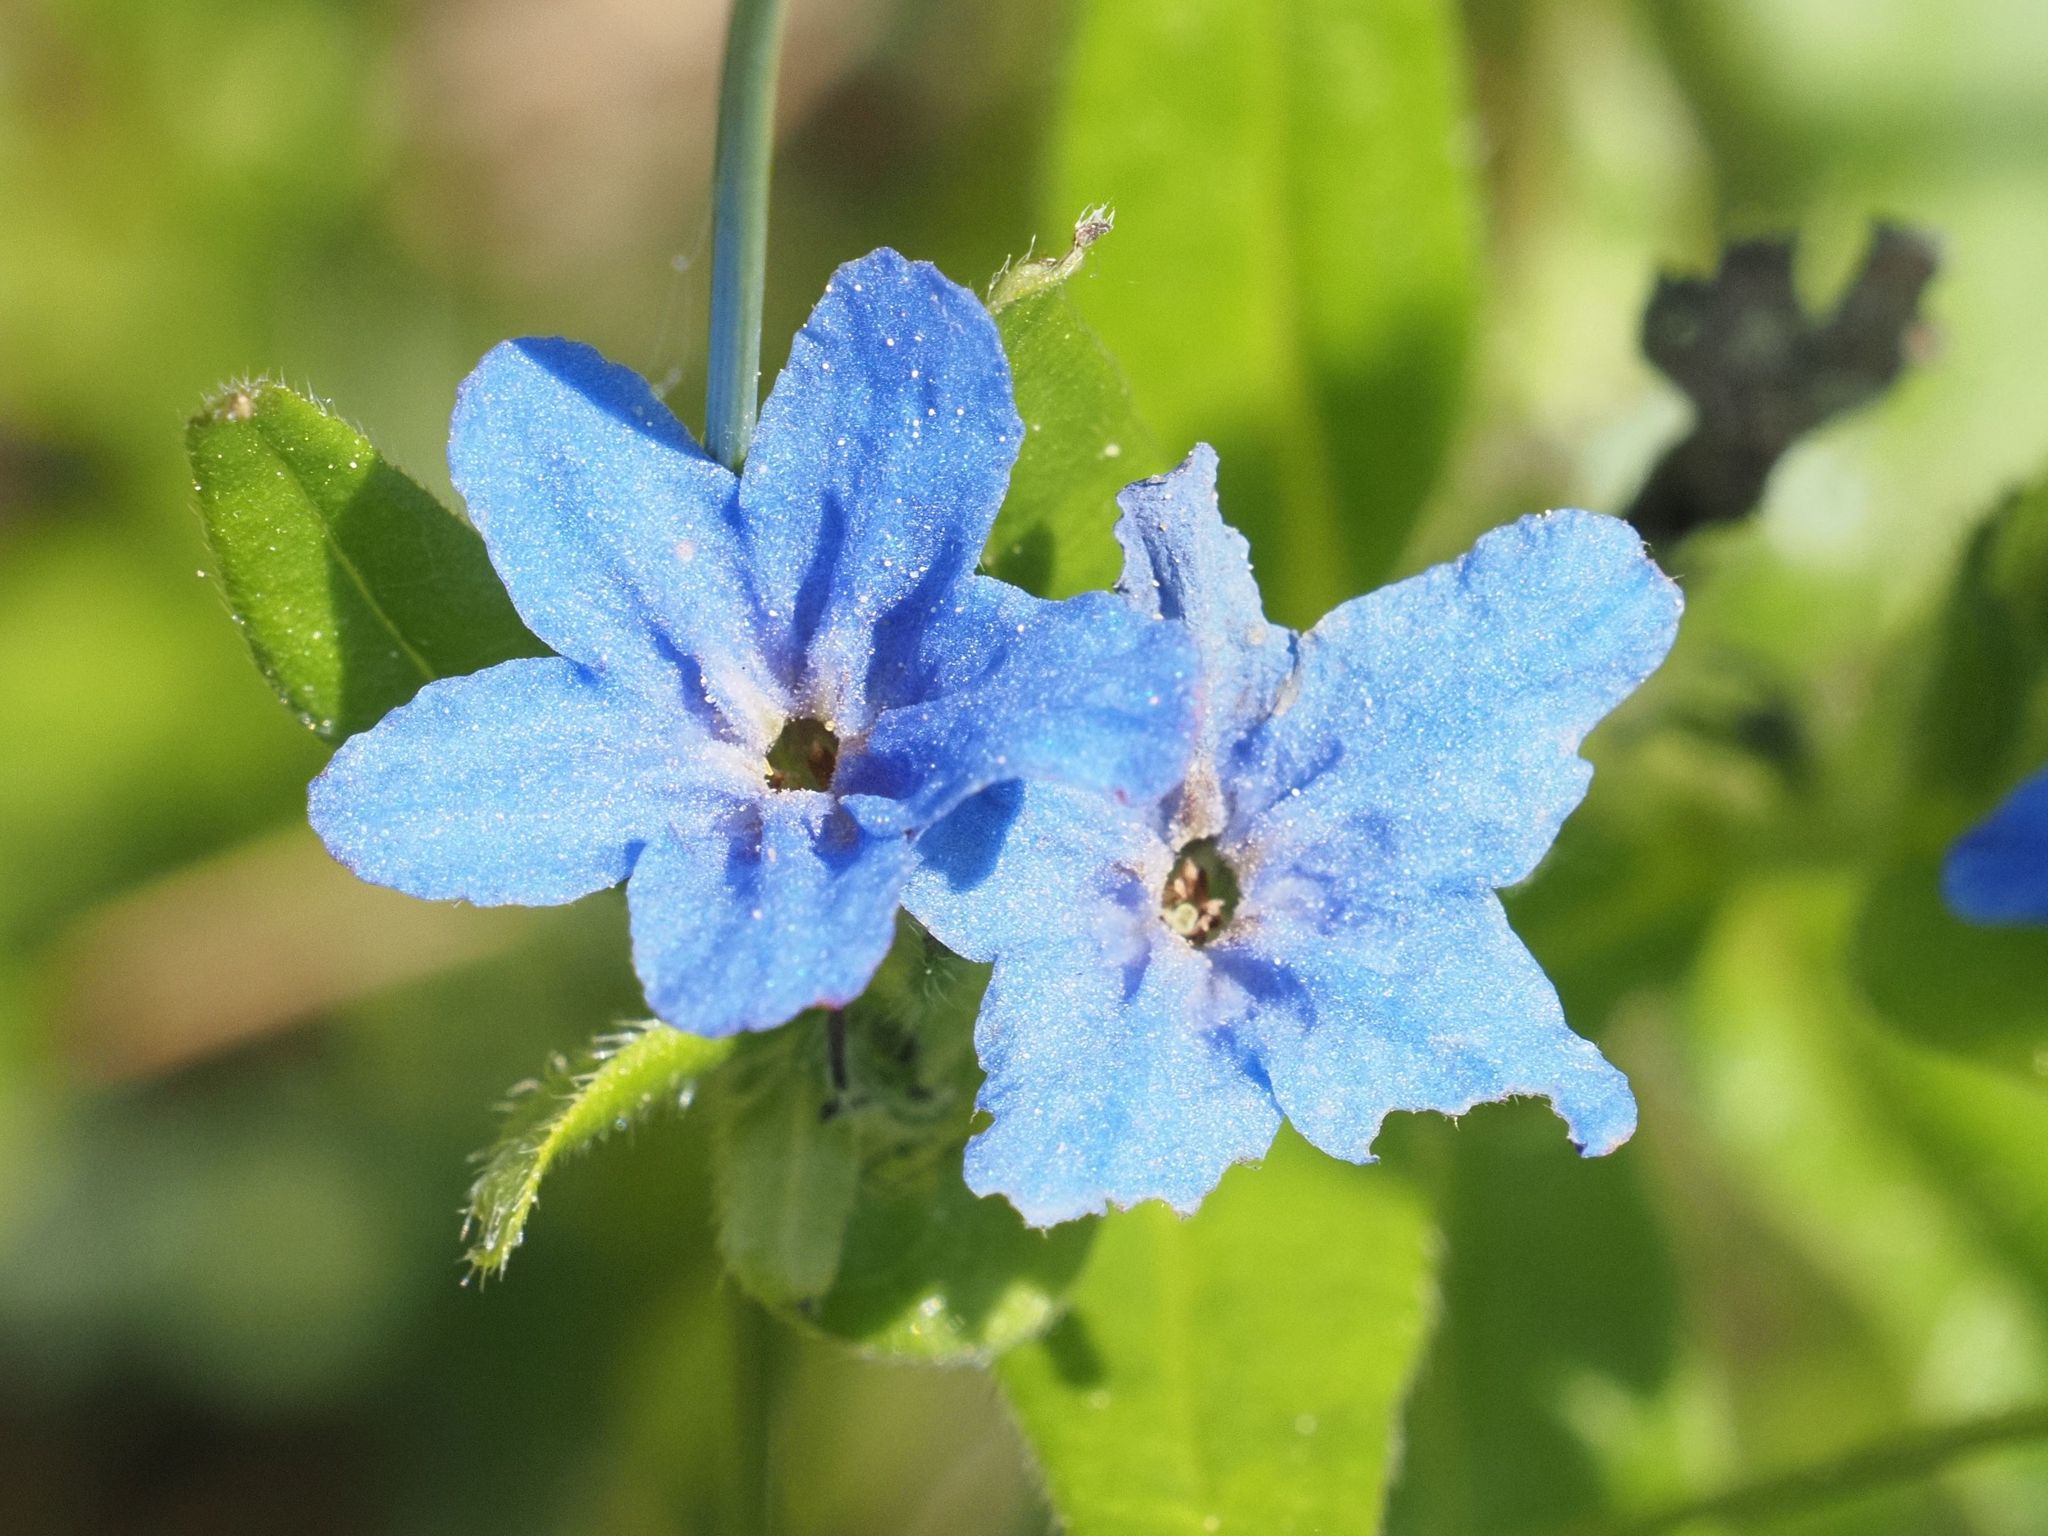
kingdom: Plantae
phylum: Tracheophyta
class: Magnoliopsida
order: Boraginales
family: Boraginaceae
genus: Aegonychon
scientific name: Aegonychon purpurocaeruleum
